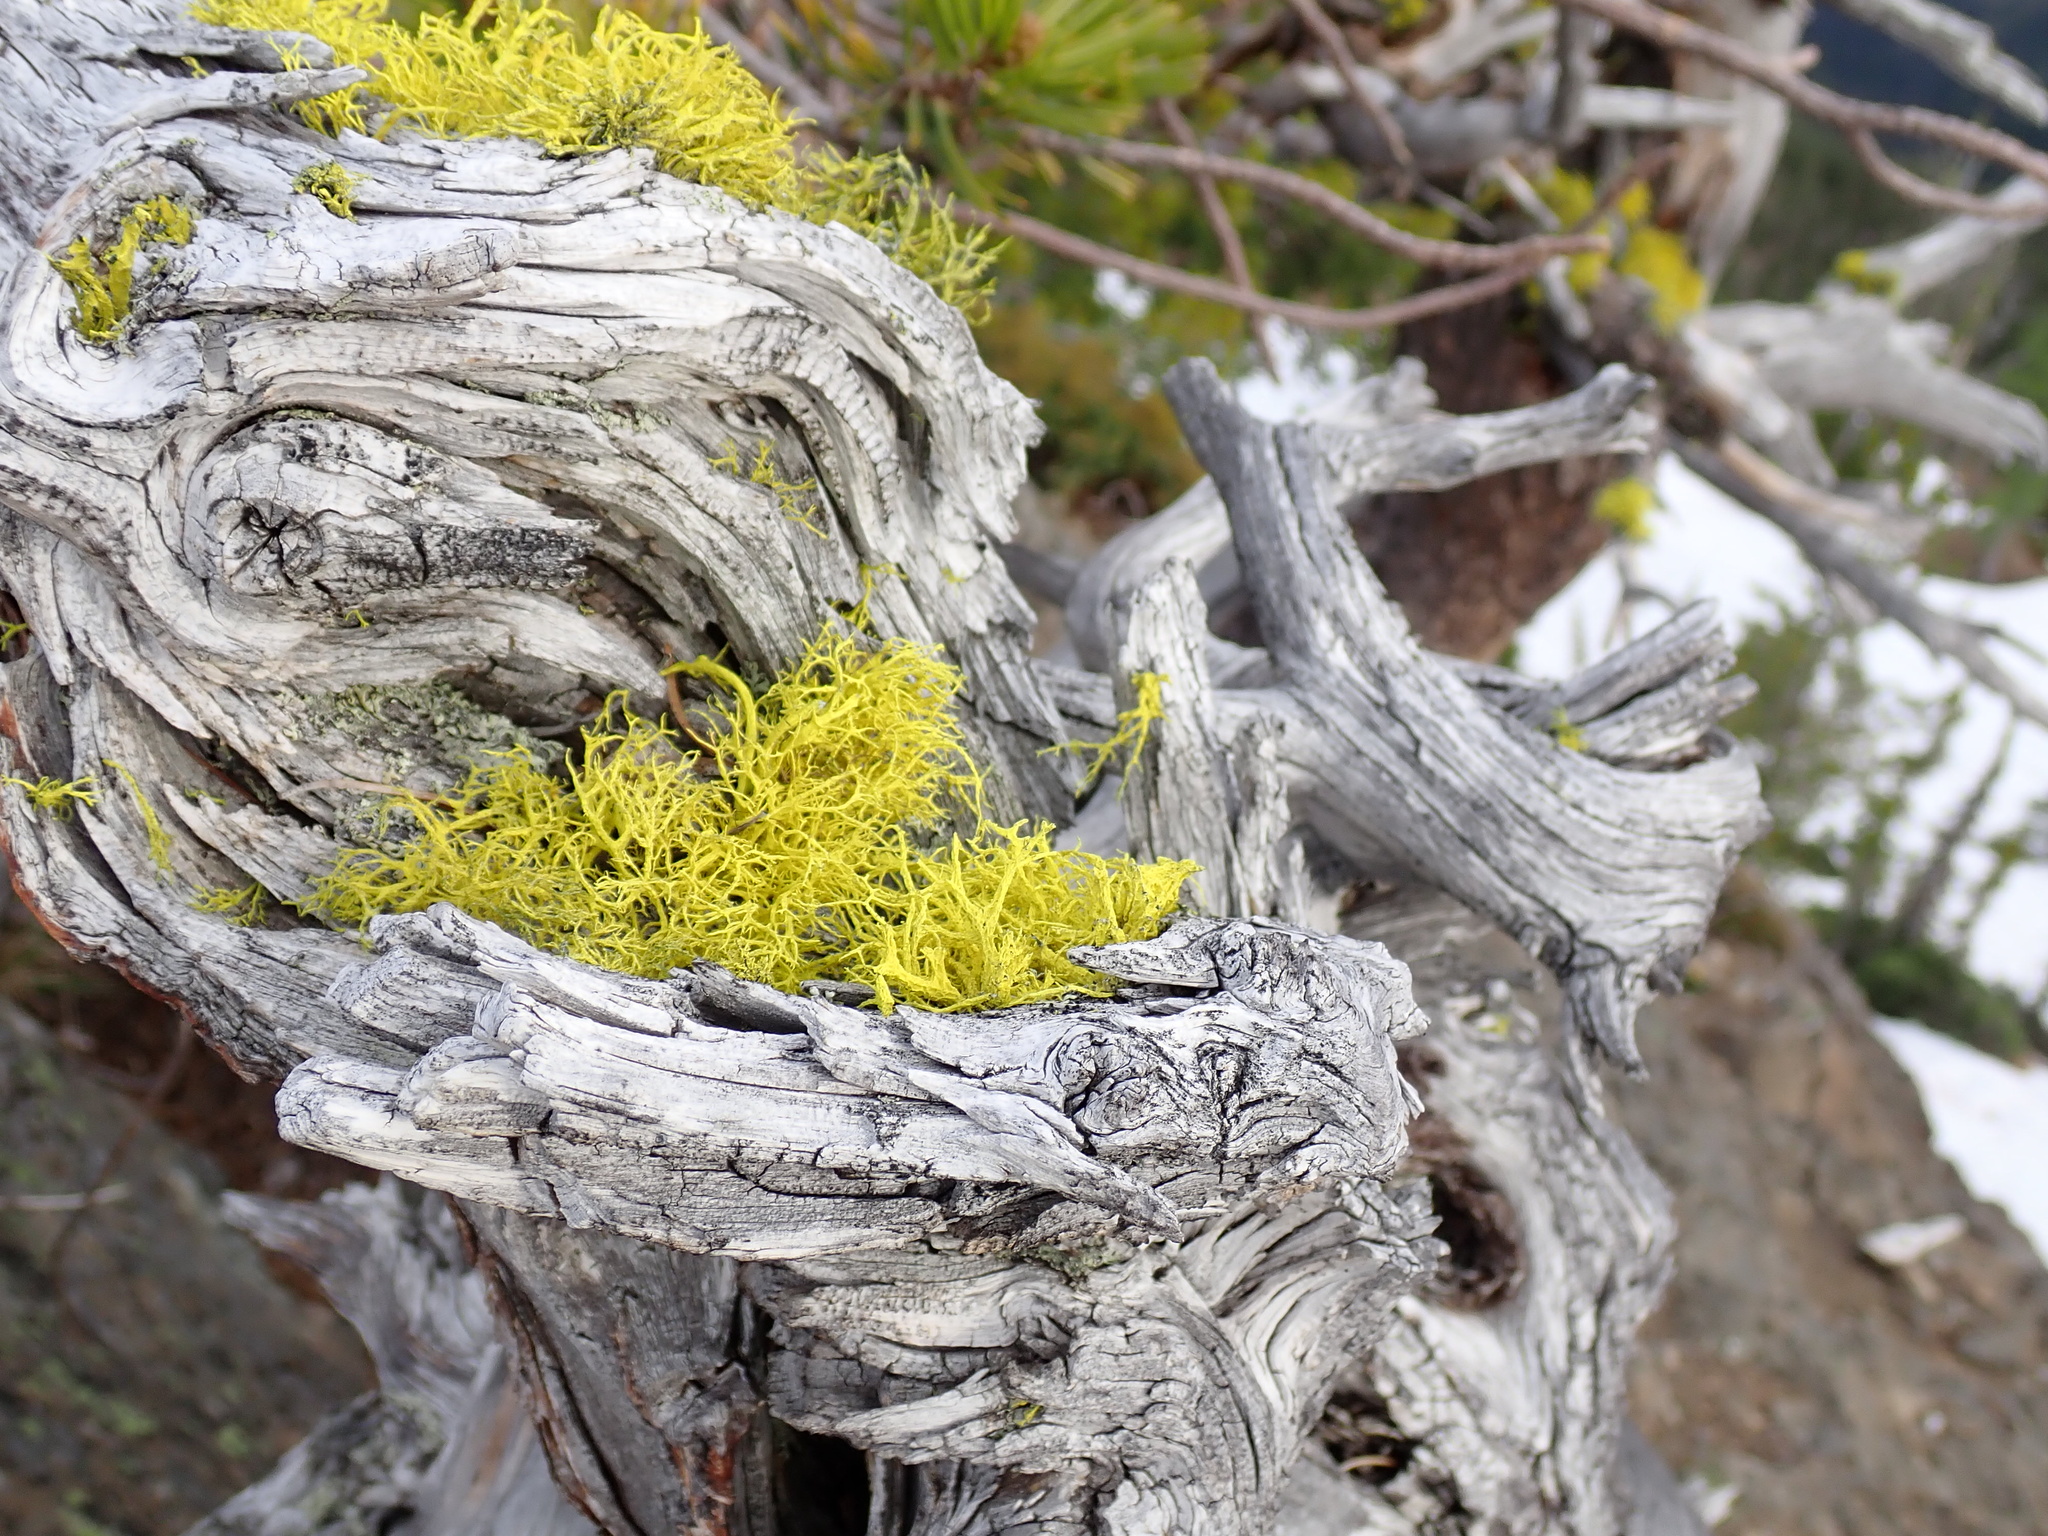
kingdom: Fungi
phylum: Ascomycota
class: Lecanoromycetes
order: Lecanorales
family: Parmeliaceae
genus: Letharia
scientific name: Letharia vulpina
